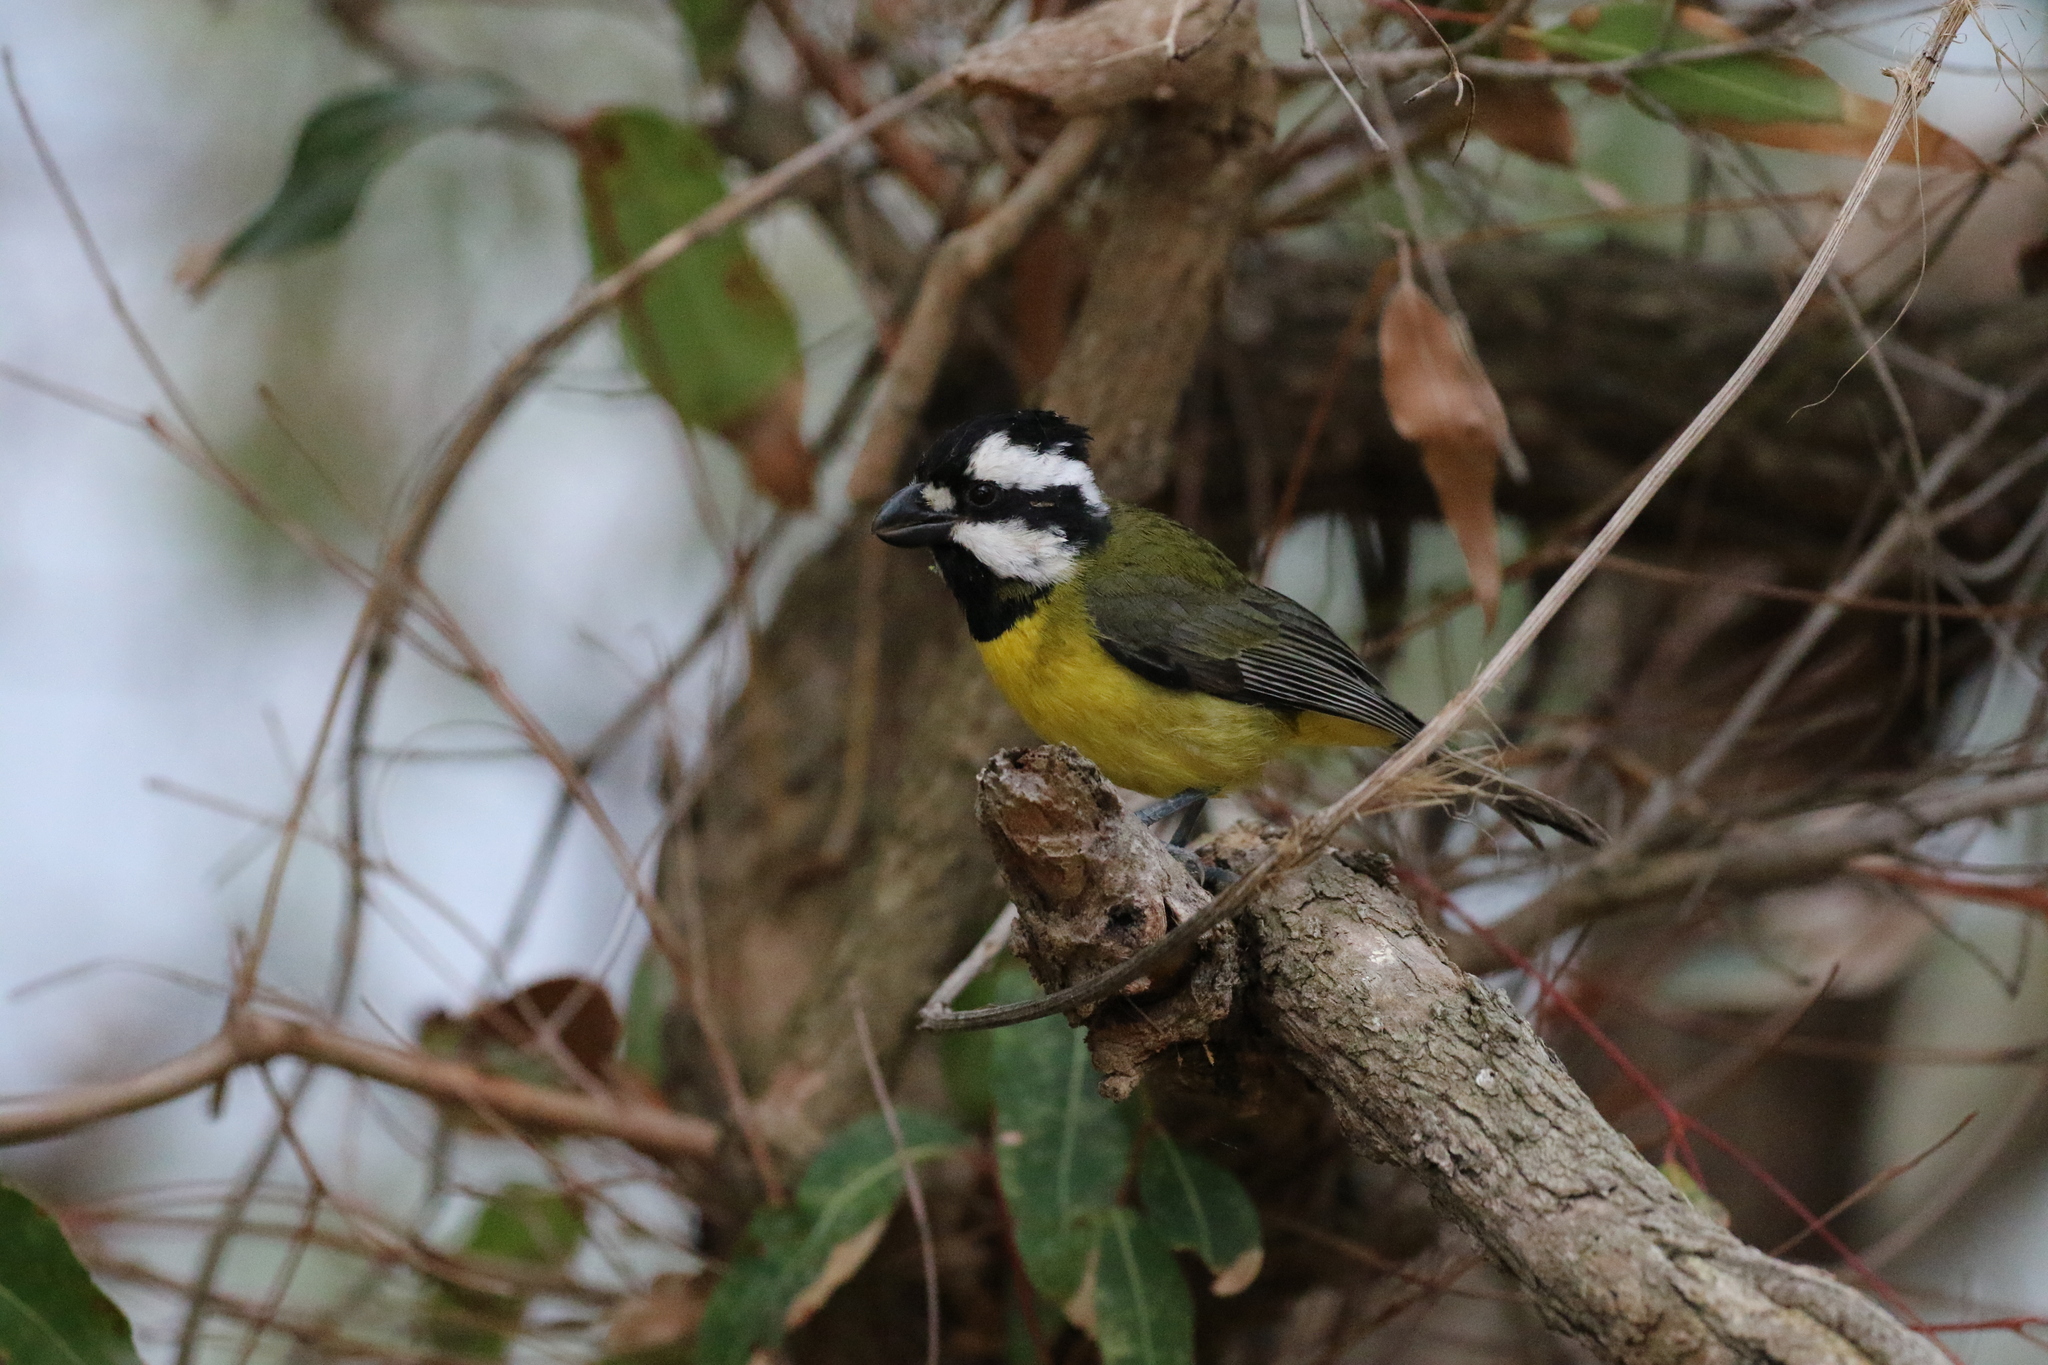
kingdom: Animalia
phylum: Chordata
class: Aves
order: Passeriformes
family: Pachycephalidae
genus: Falcunculus
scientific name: Falcunculus frontatus
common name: Crested shriketit
